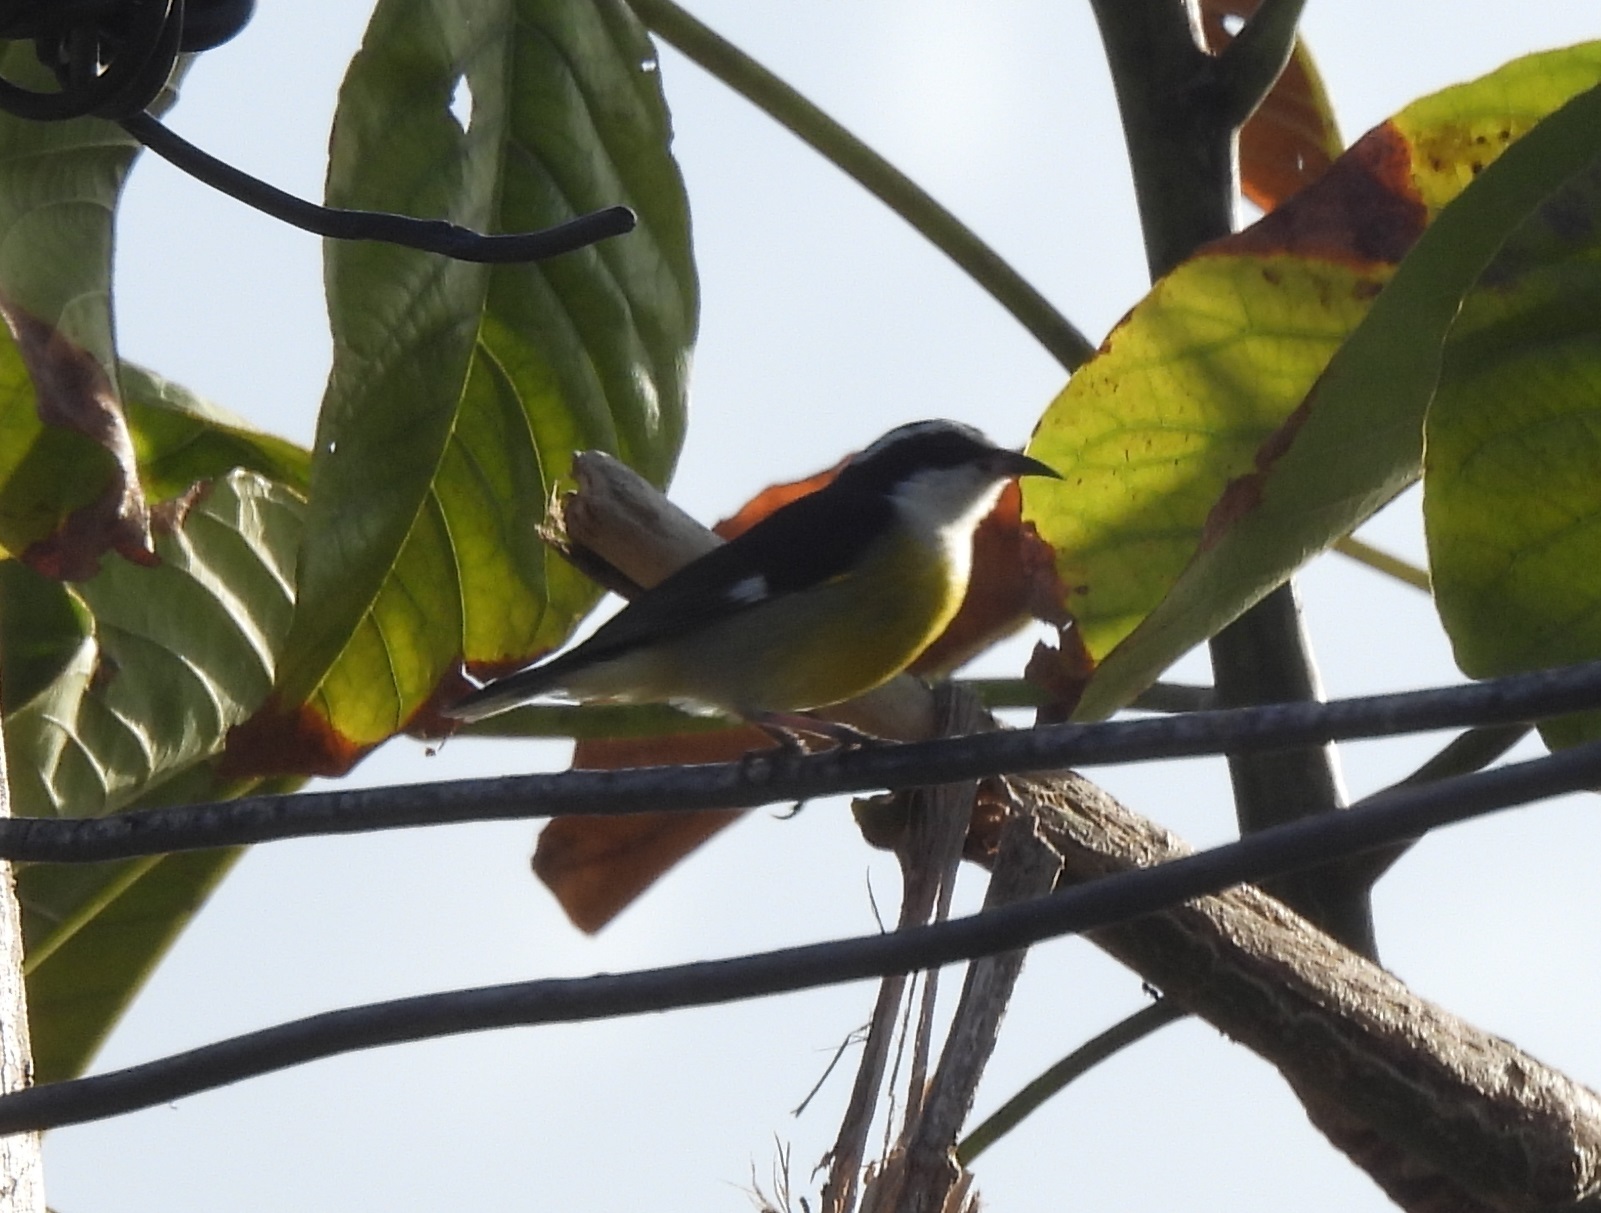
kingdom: Animalia
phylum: Chordata
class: Aves
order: Passeriformes
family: Thraupidae
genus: Coereba
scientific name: Coereba flaveola
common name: Bananaquit
